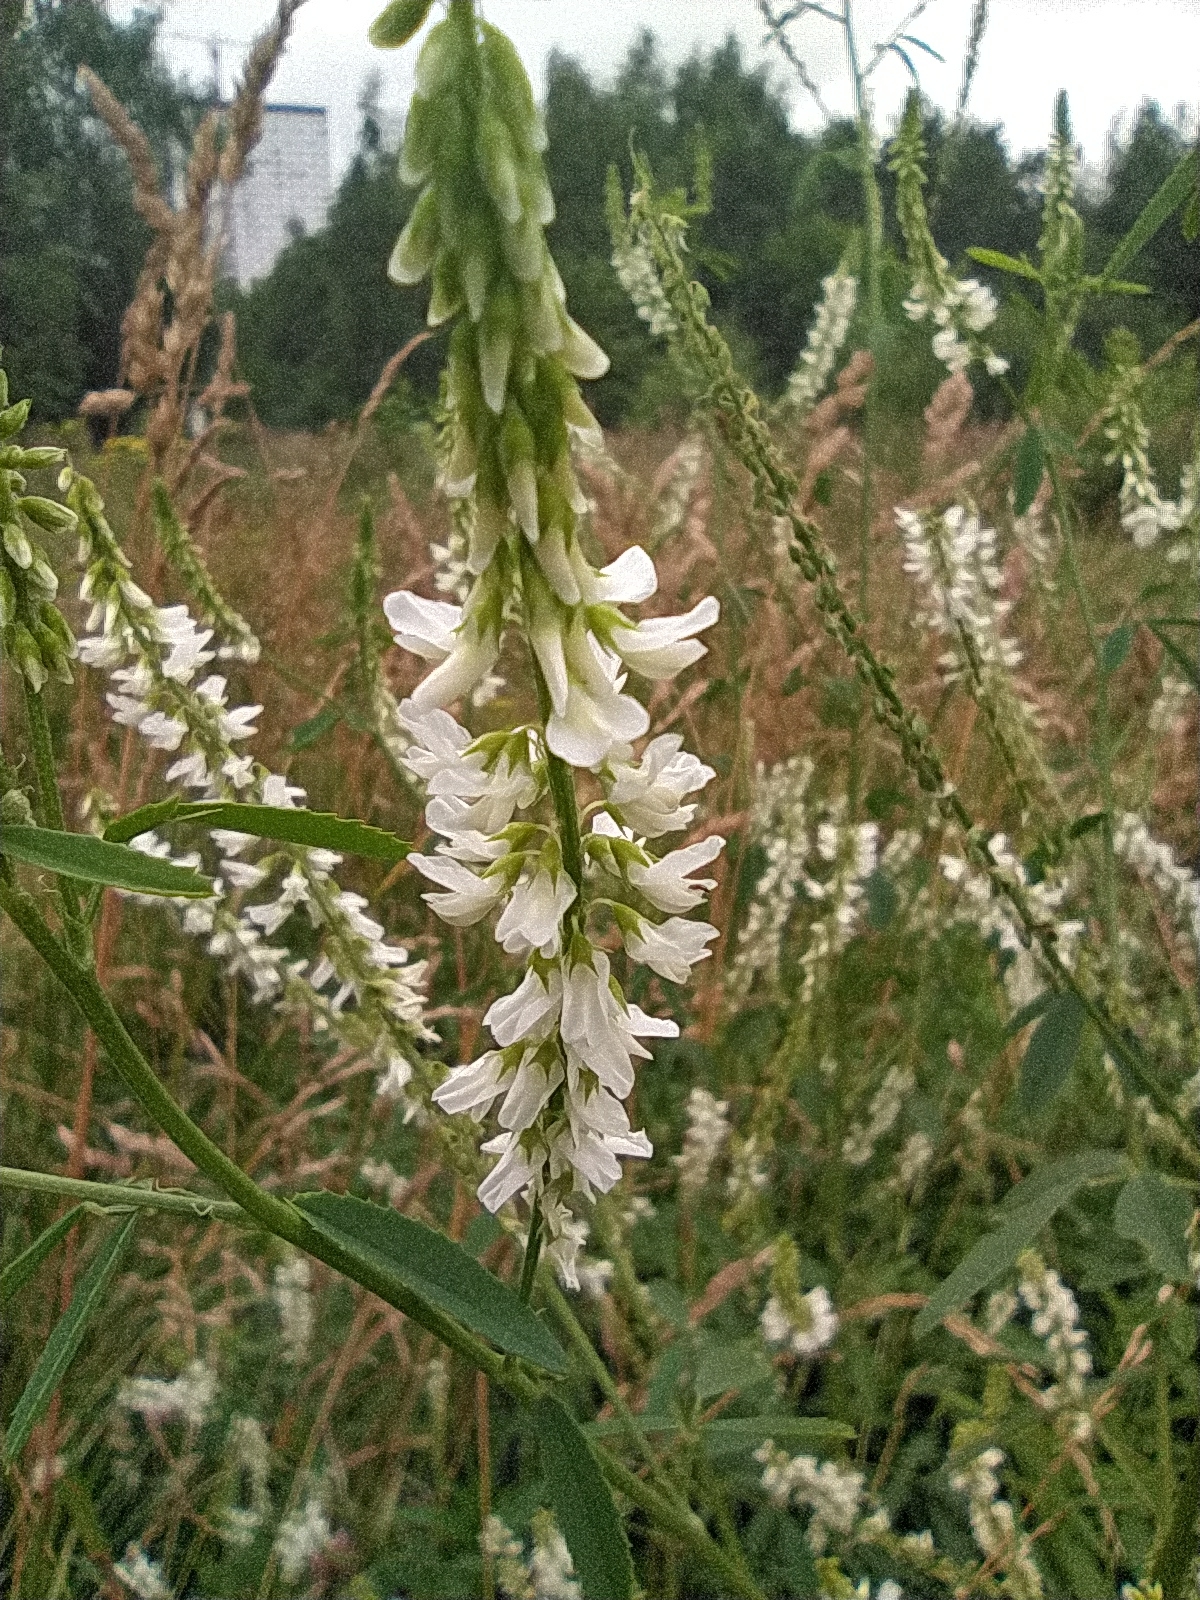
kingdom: Plantae
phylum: Tracheophyta
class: Magnoliopsida
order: Fabales
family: Fabaceae
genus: Melilotus
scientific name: Melilotus albus
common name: White melilot
